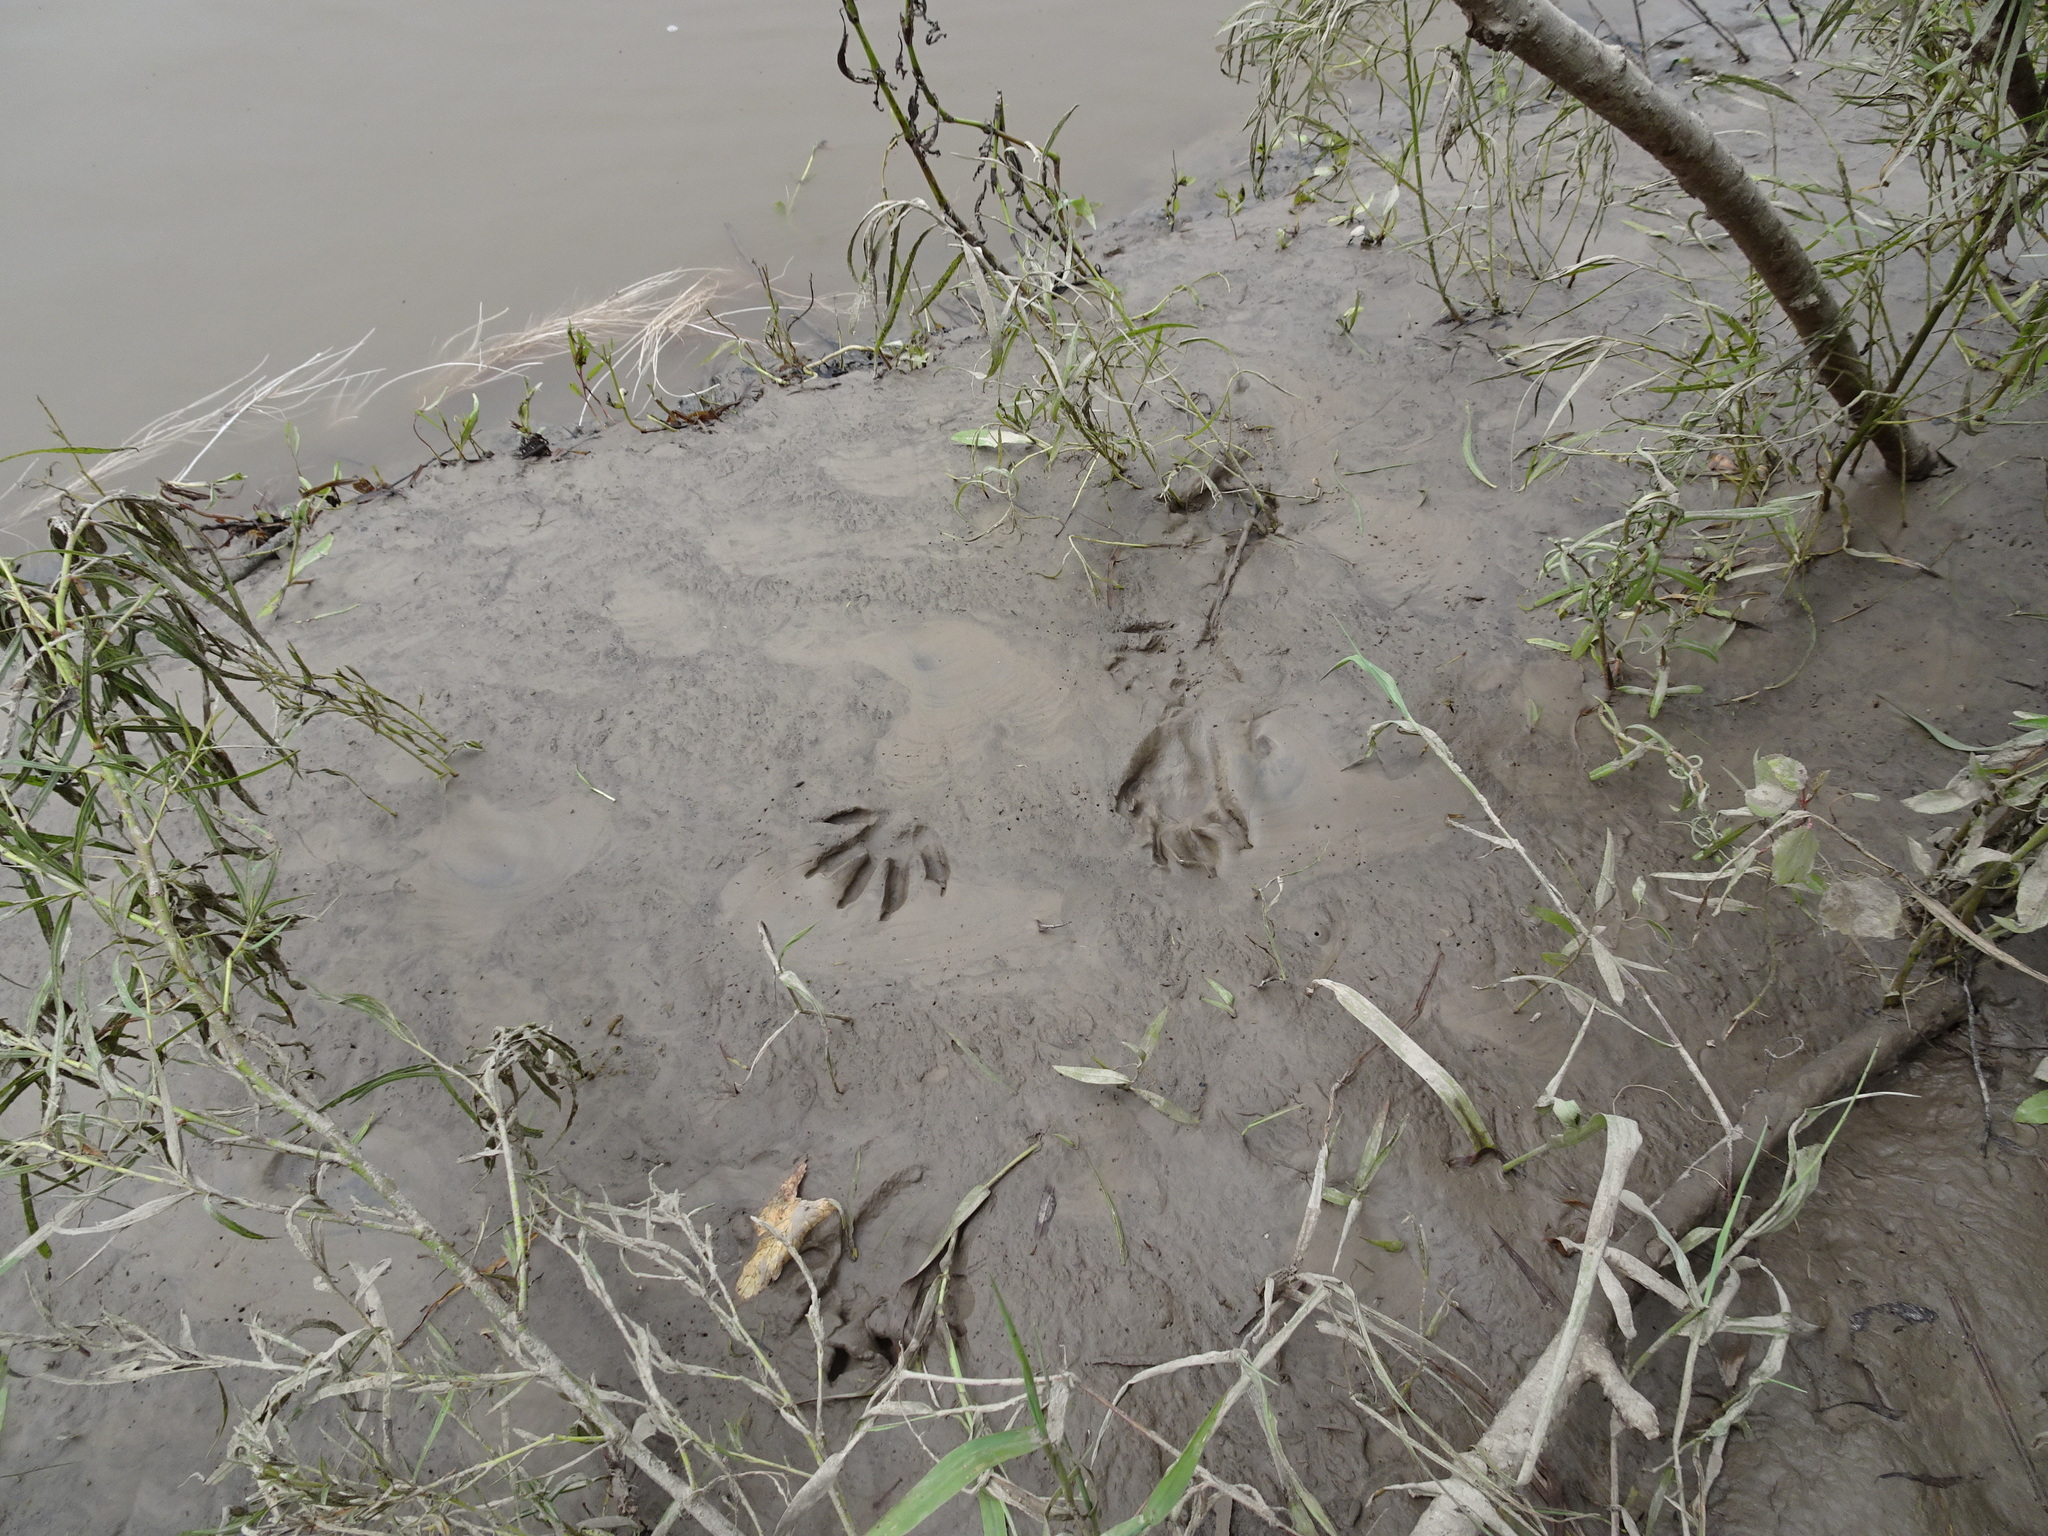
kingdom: Animalia
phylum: Chordata
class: Mammalia
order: Carnivora
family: Procyonidae
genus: Procyon
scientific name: Procyon lotor
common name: Raccoon
